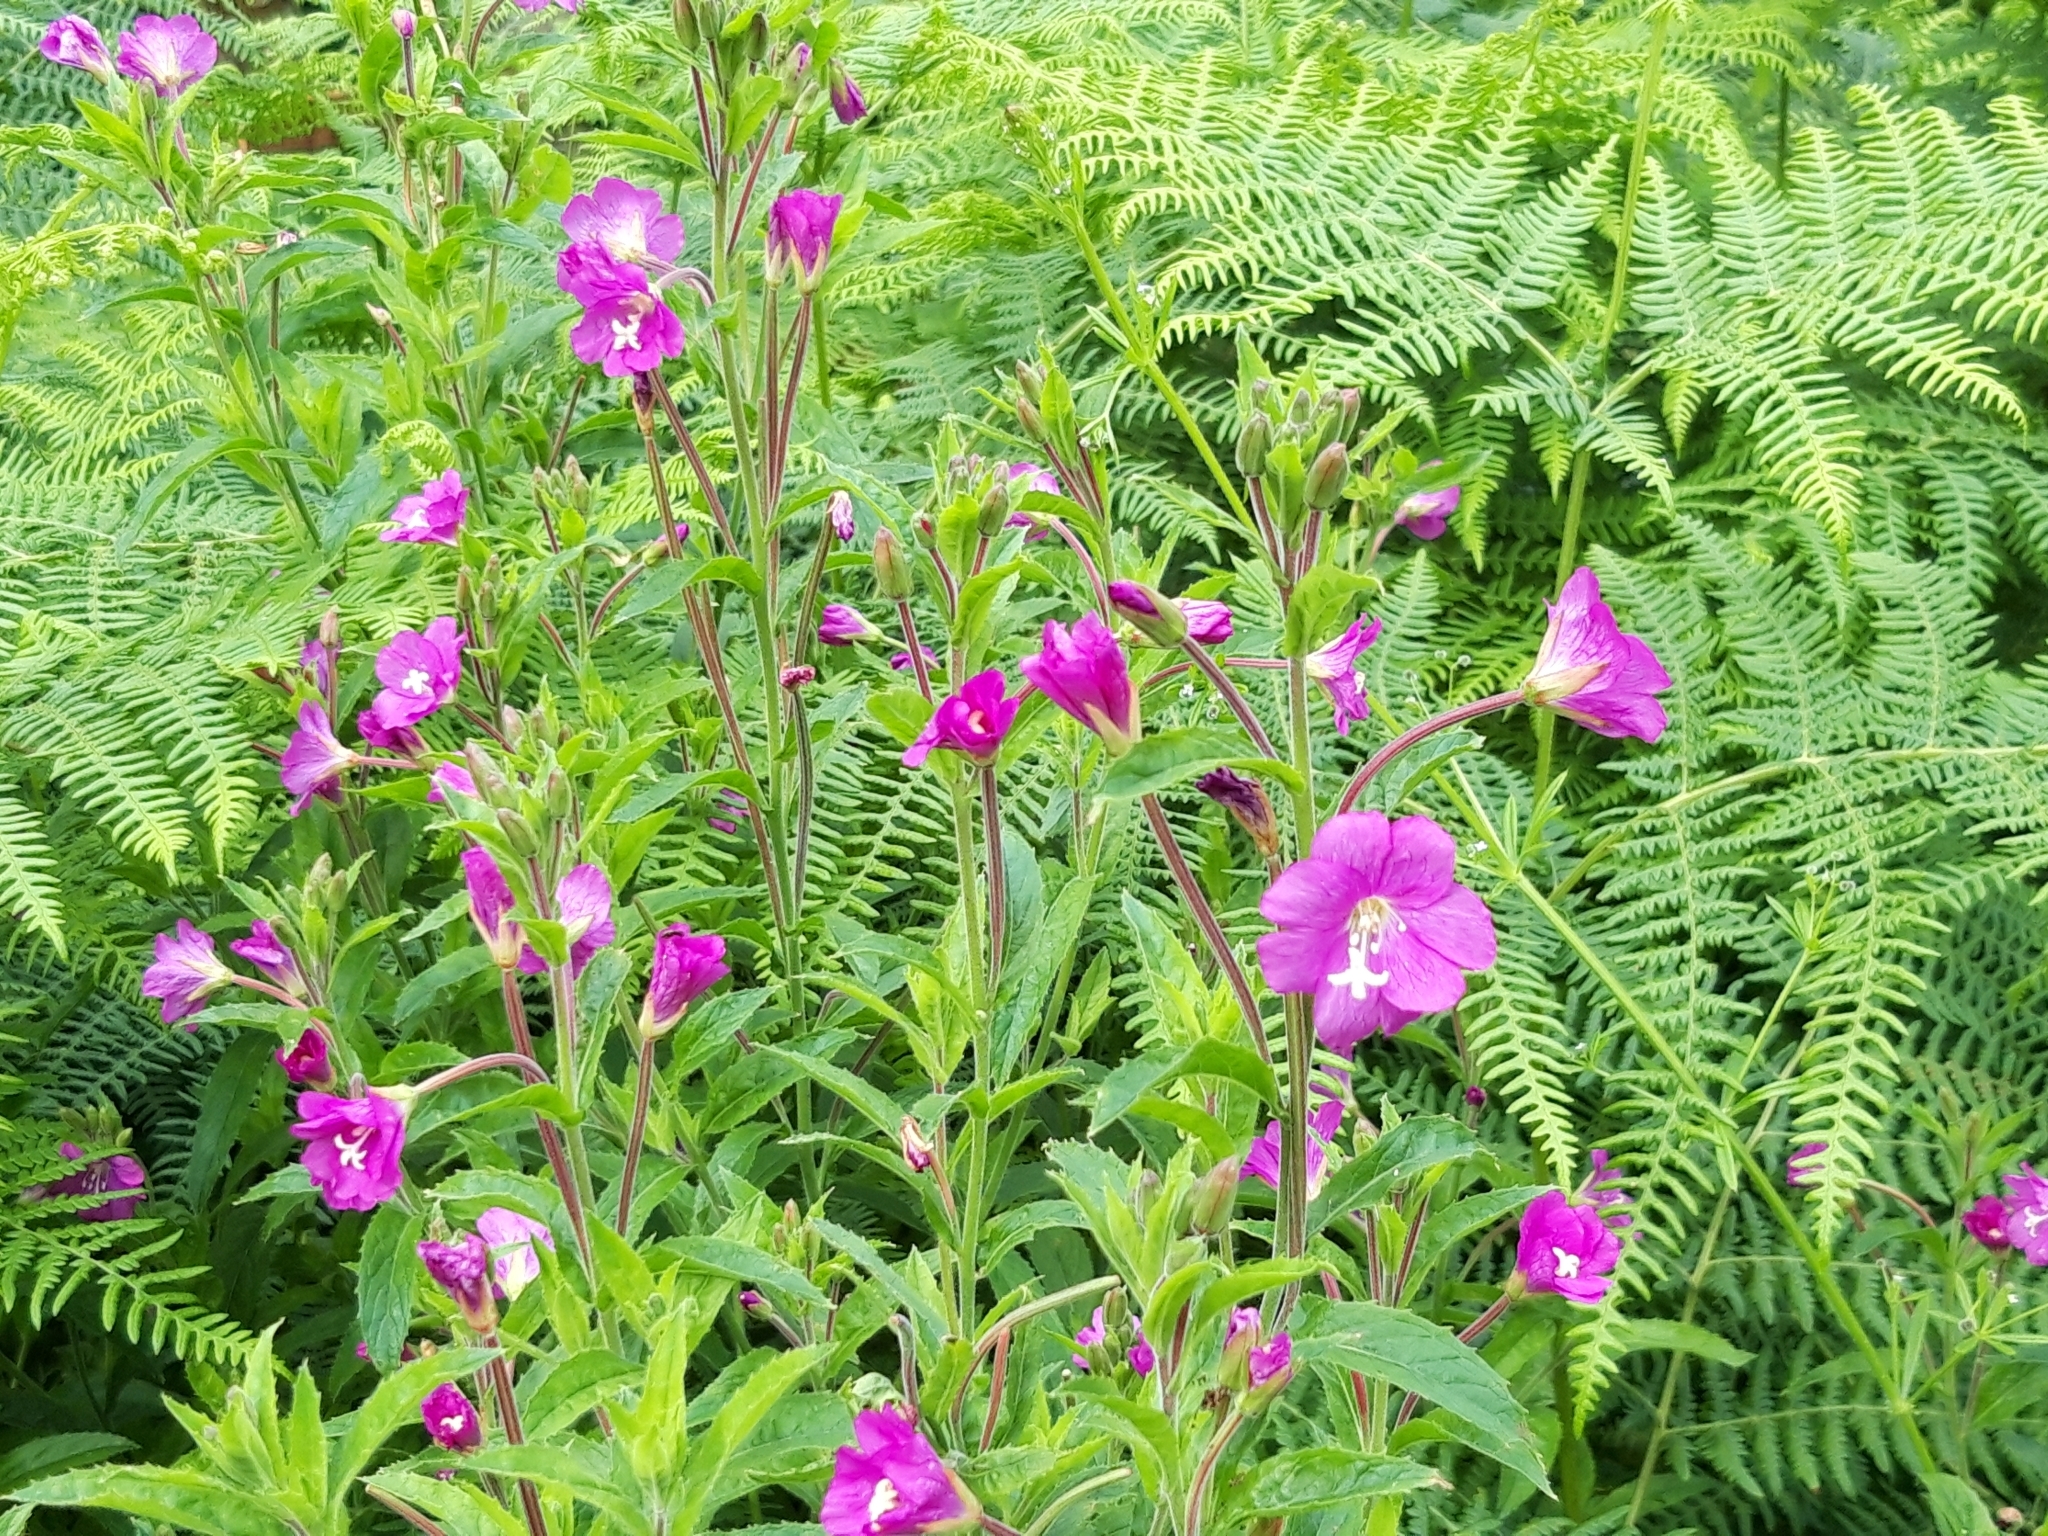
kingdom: Plantae
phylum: Tracheophyta
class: Magnoliopsida
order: Myrtales
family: Onagraceae
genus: Epilobium
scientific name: Epilobium hirsutum
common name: Great willowherb
